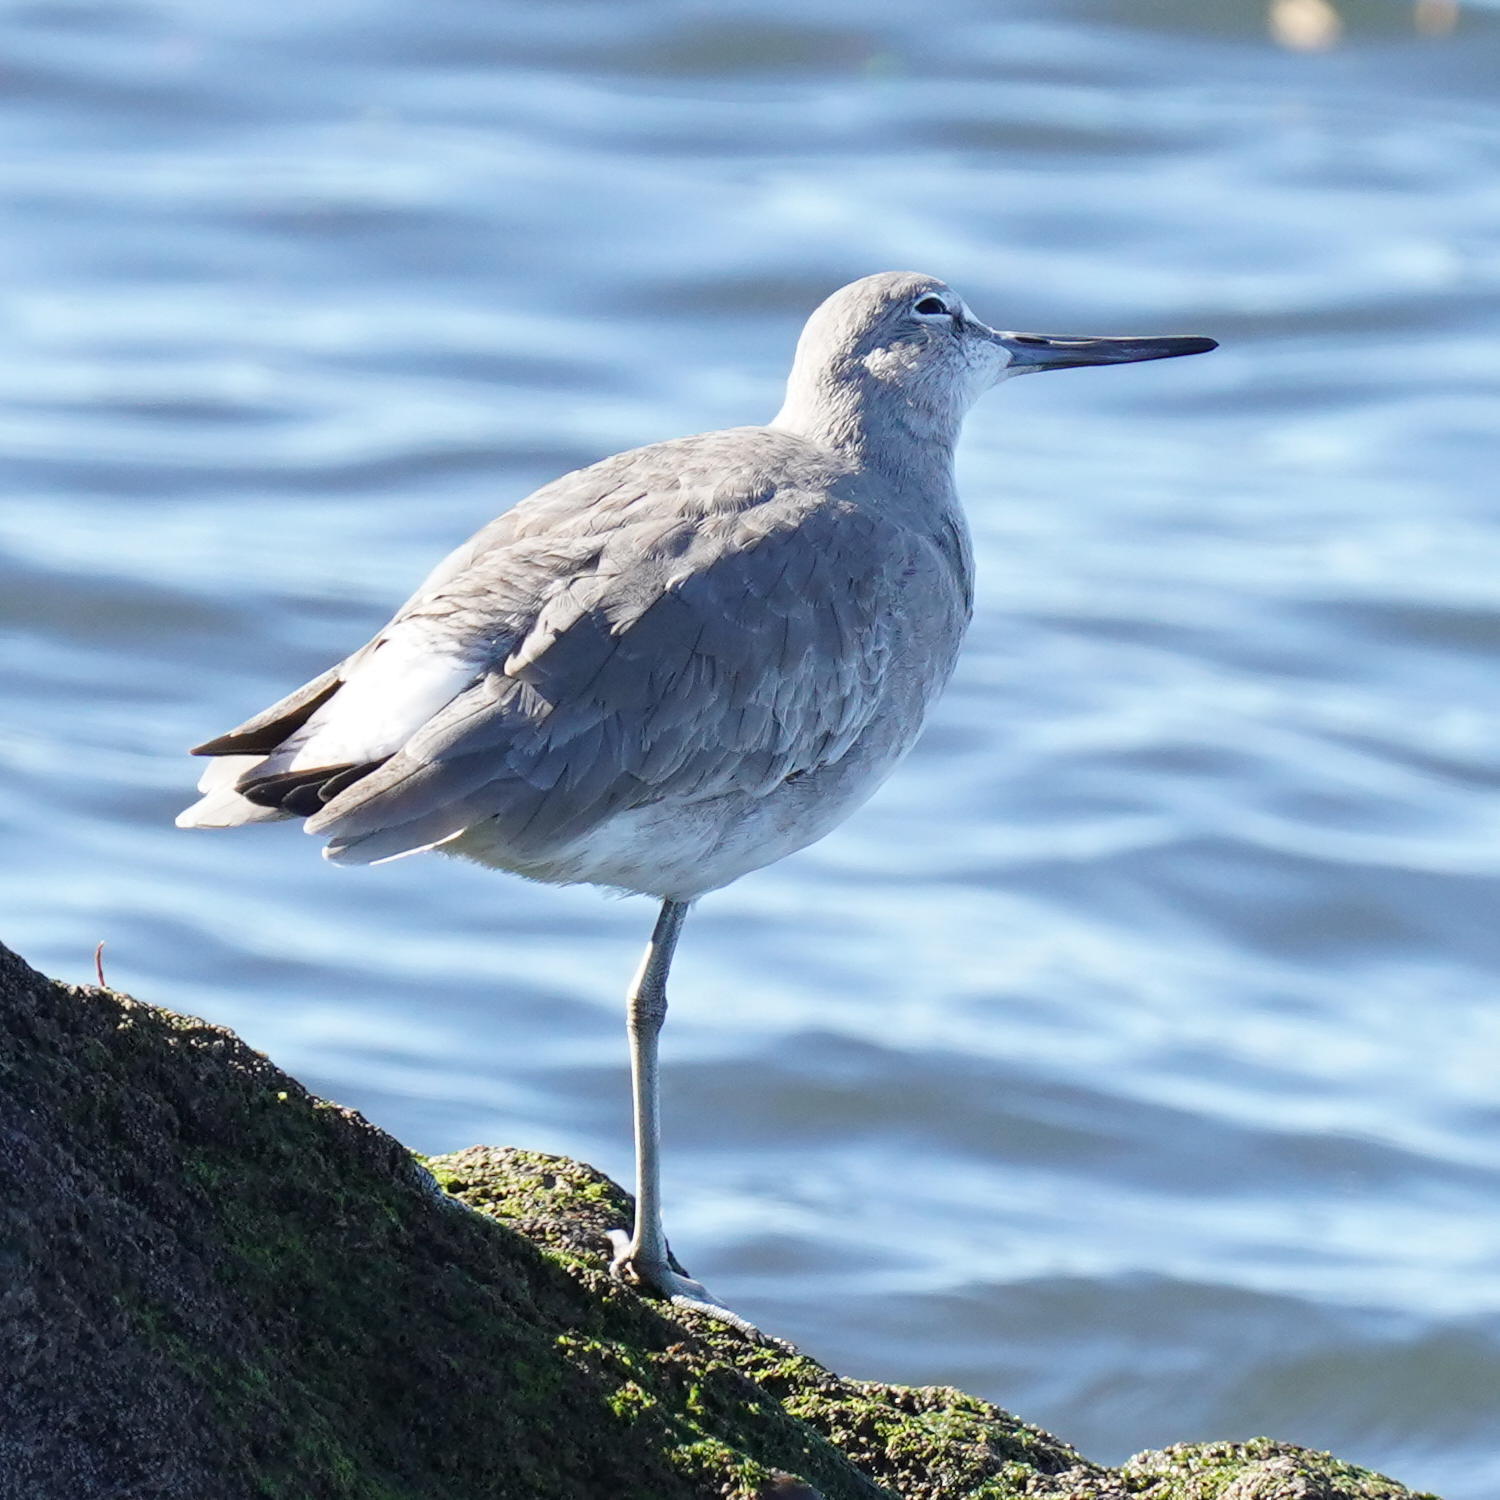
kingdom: Animalia
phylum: Chordata
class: Aves
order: Charadriiformes
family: Scolopacidae
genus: Tringa
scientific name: Tringa semipalmata
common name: Willet
